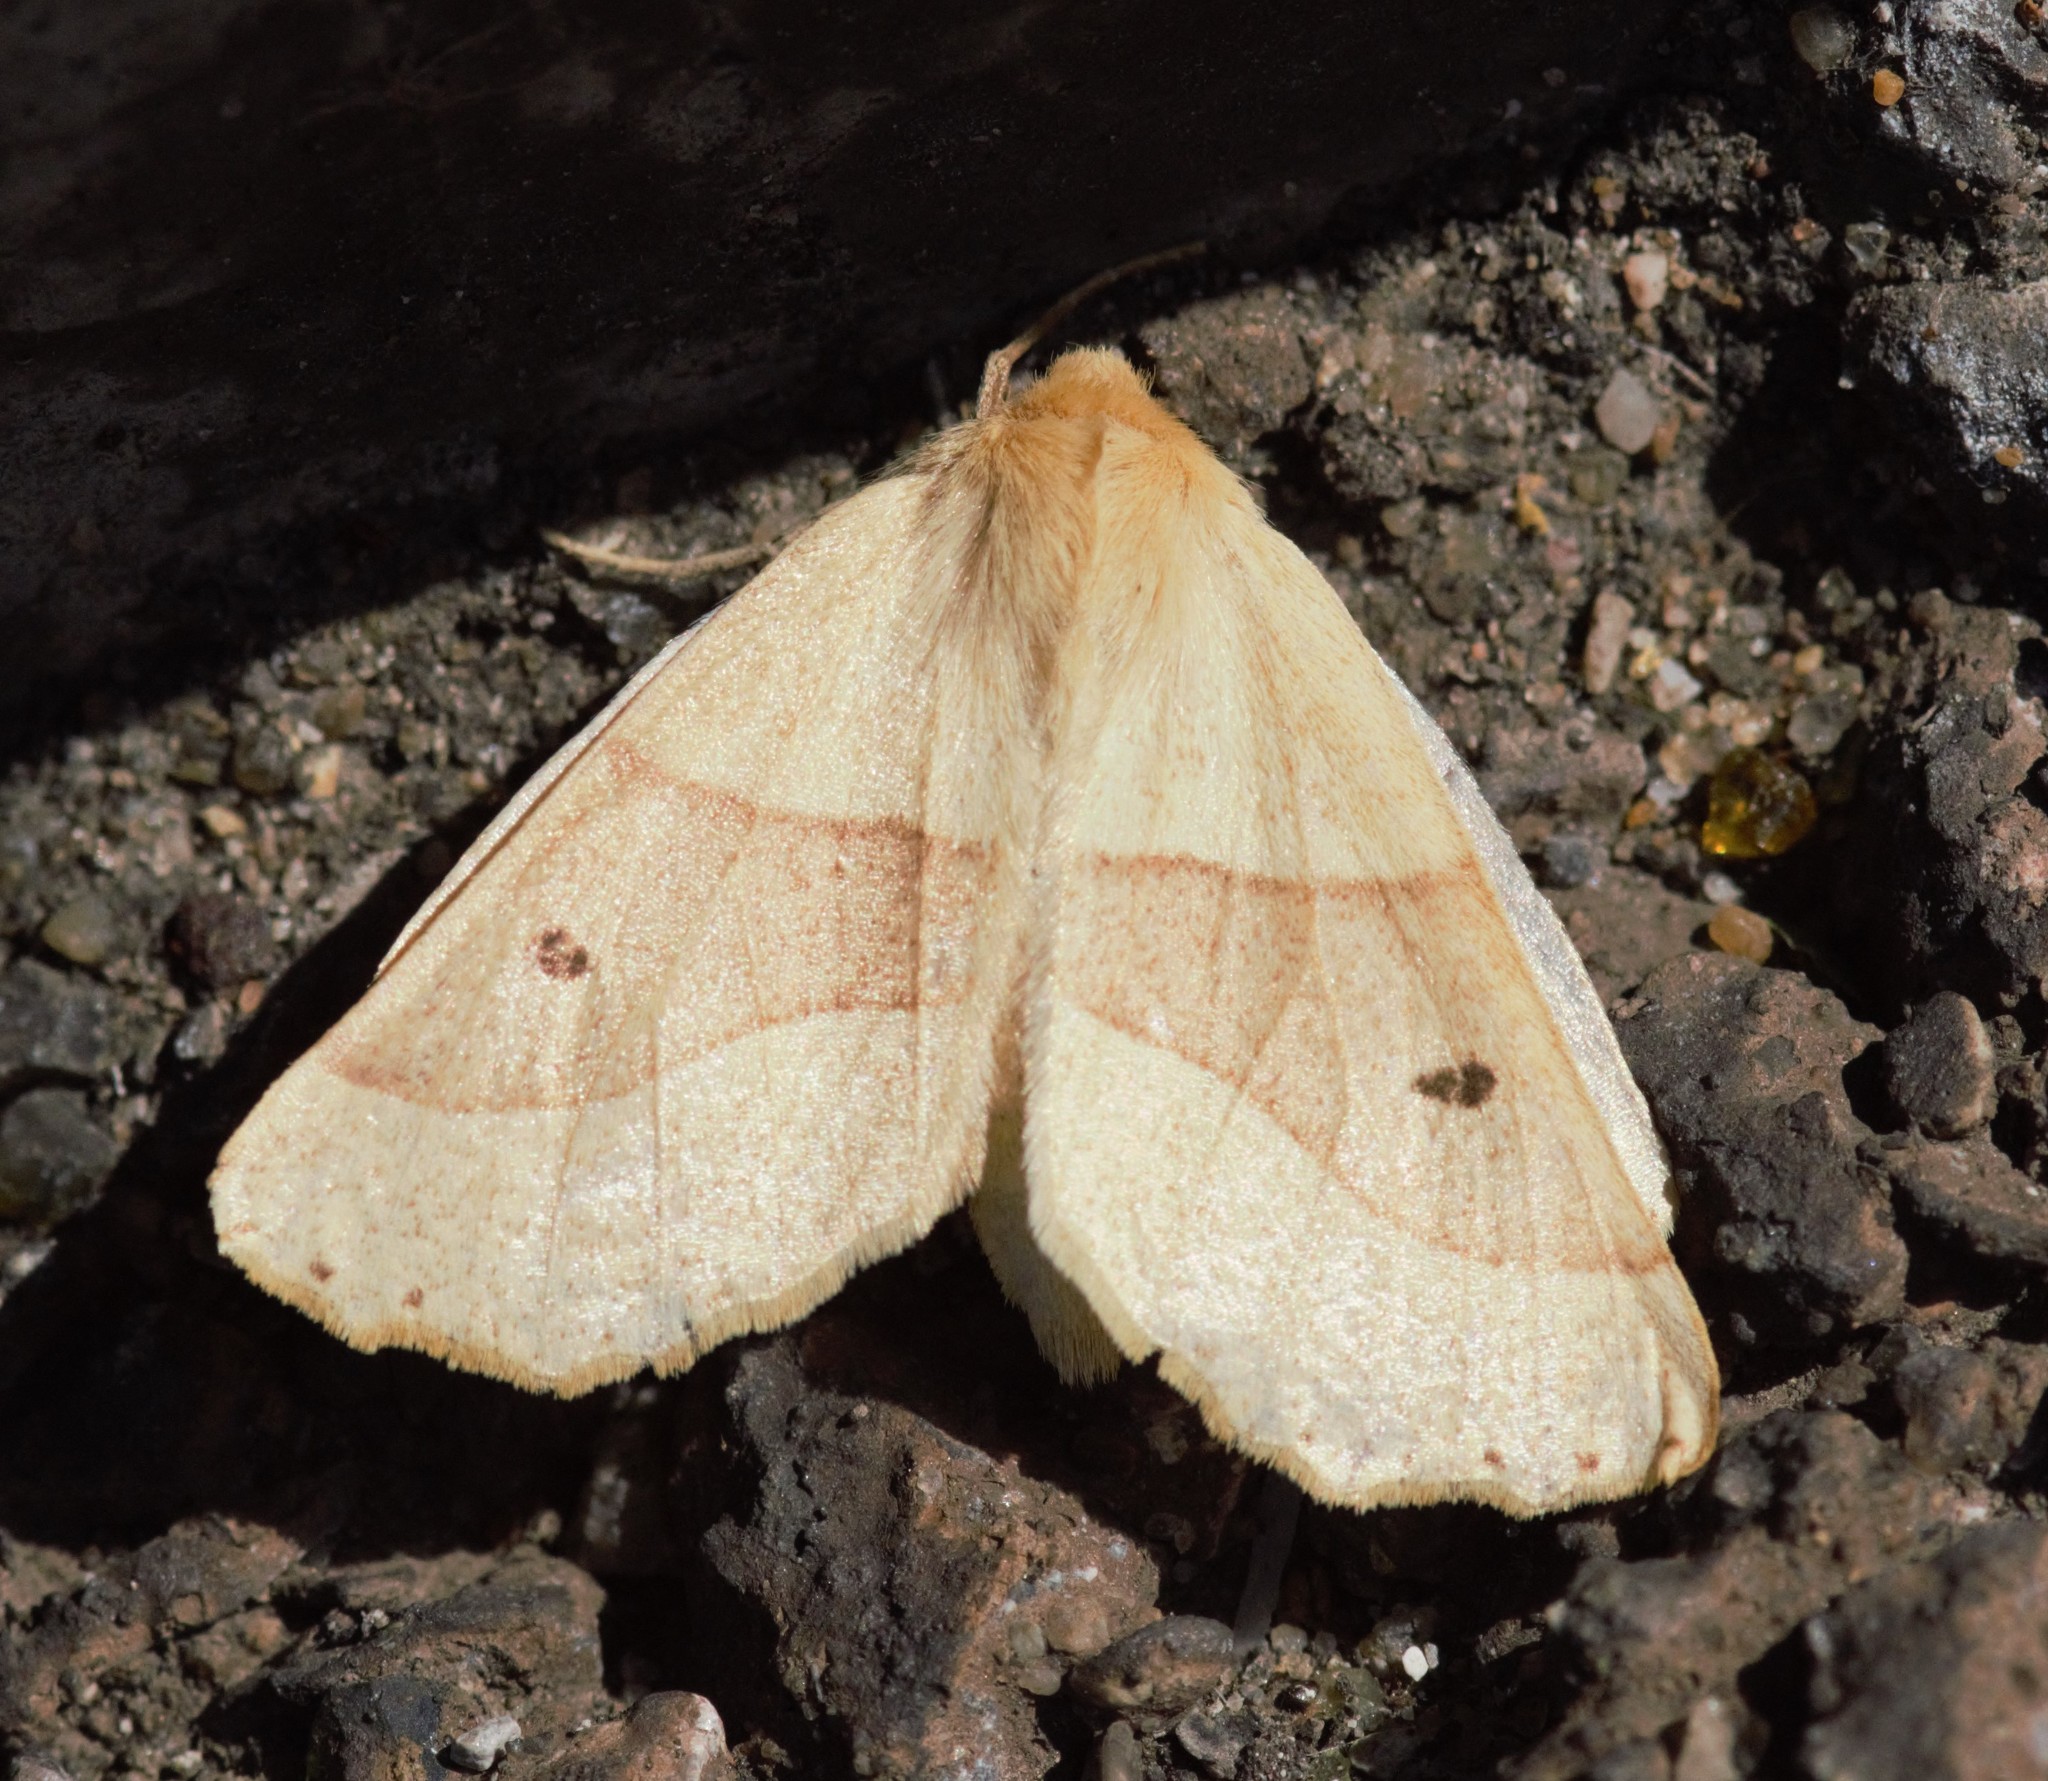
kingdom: Animalia
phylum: Arthropoda
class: Insecta
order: Lepidoptera
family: Geometridae
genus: Crocallis
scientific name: Crocallis elinguaria
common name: Scalloped oak
